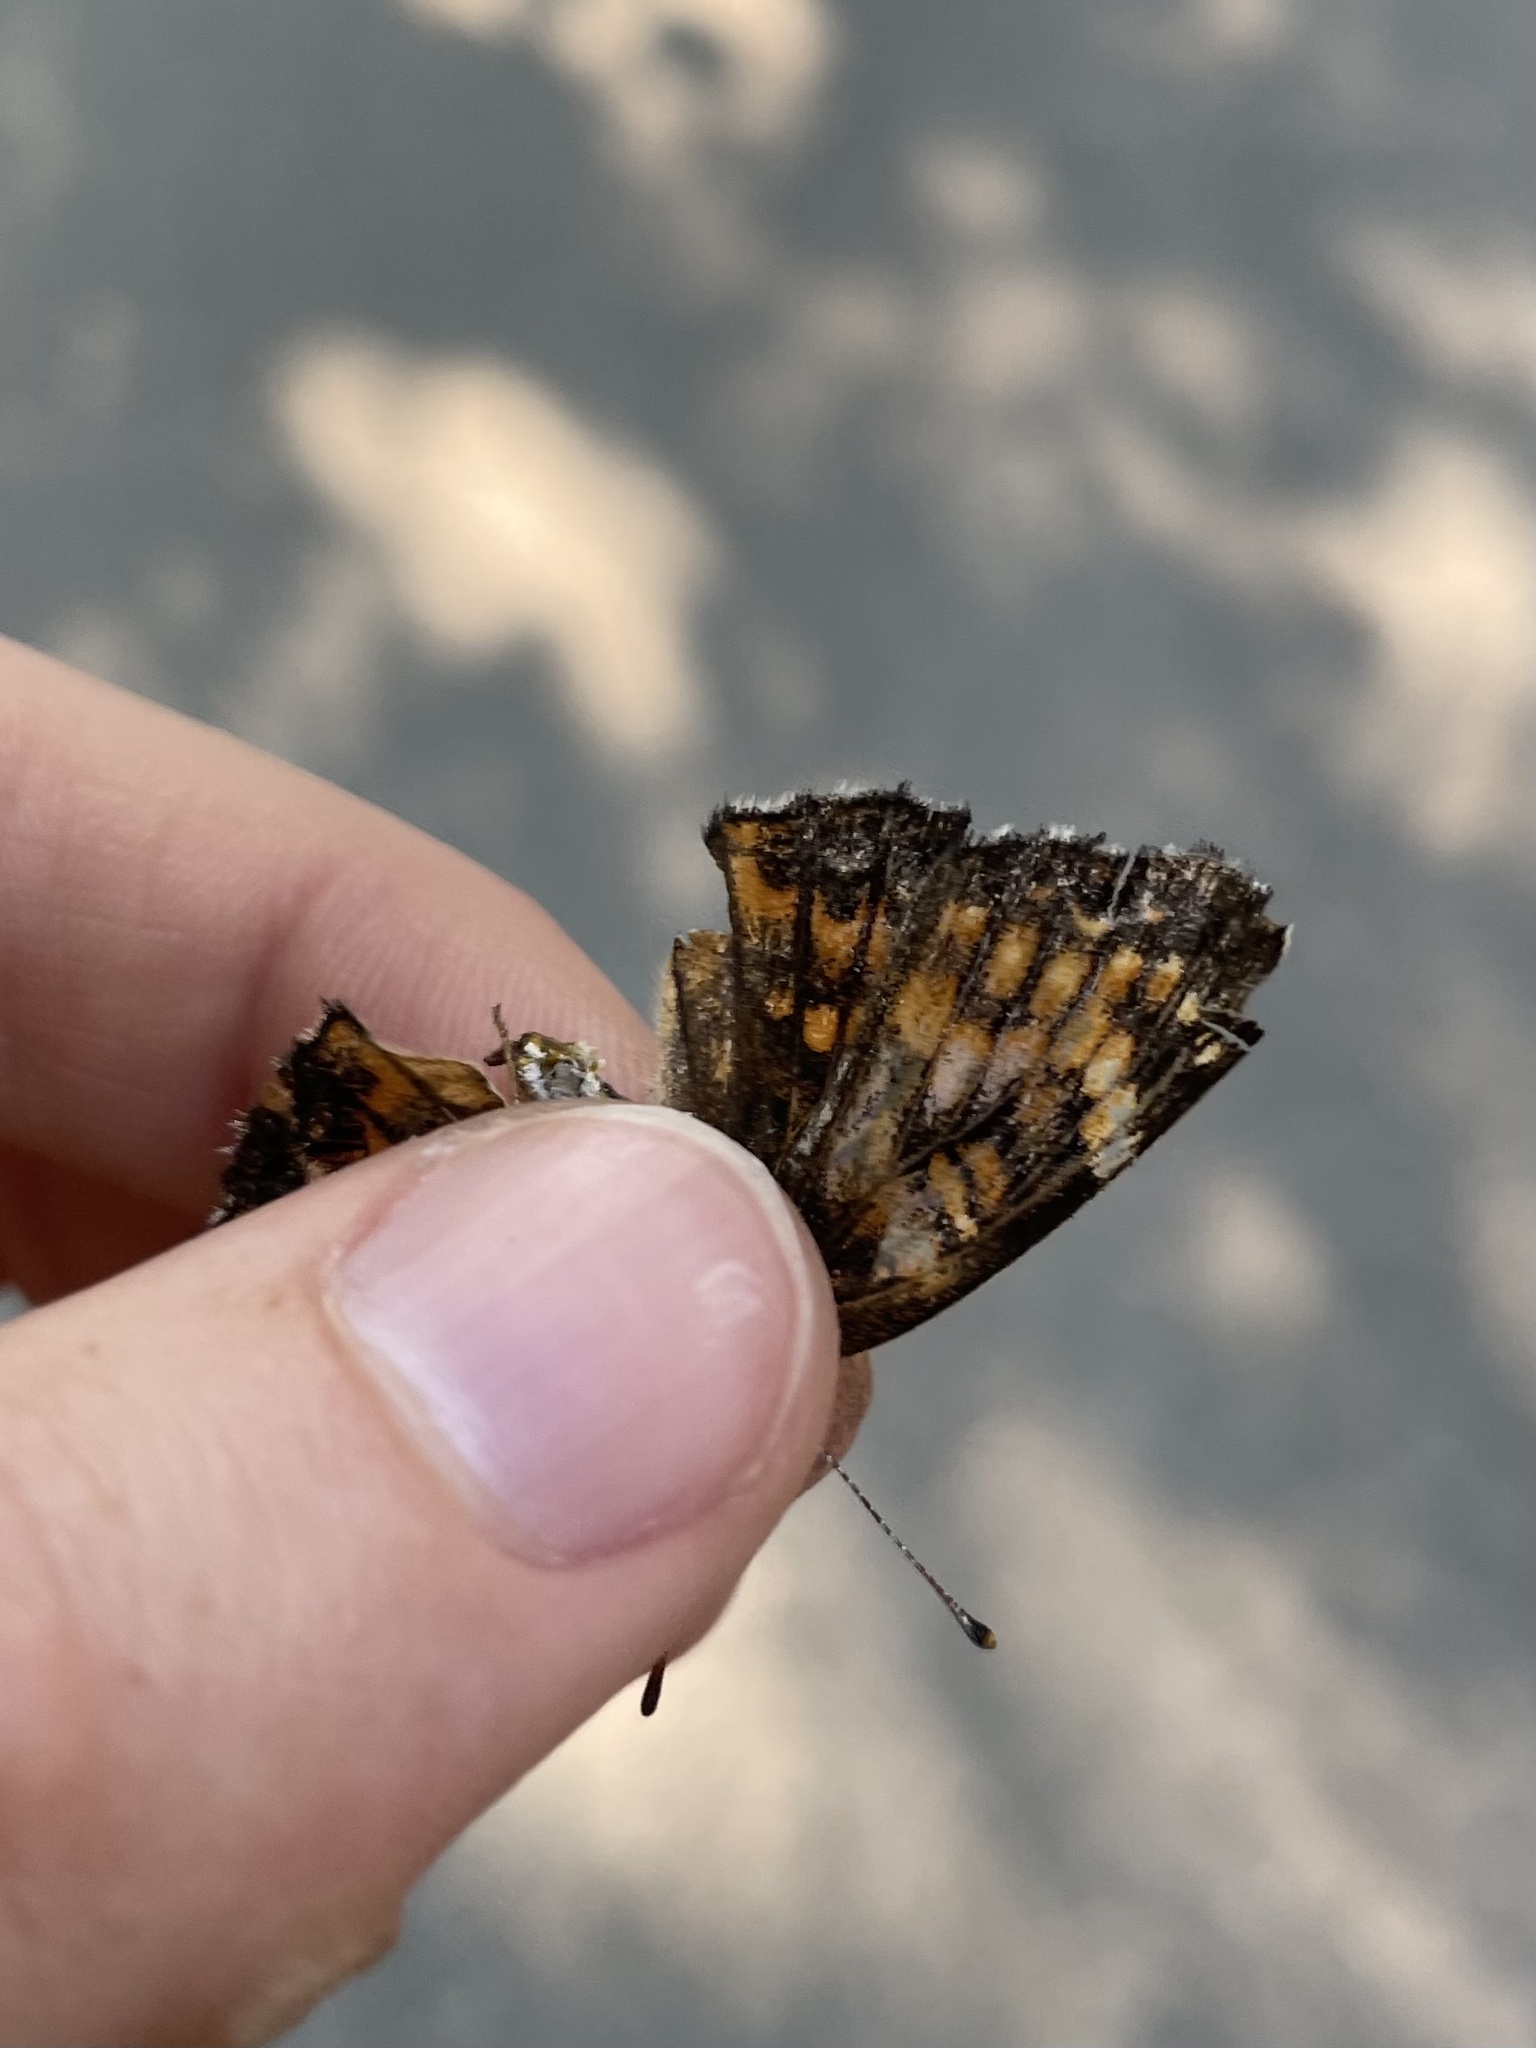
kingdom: Animalia
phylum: Arthropoda
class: Insecta
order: Lepidoptera
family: Nymphalidae
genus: Chlosyne
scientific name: Chlosyne harrisii
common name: Harris's checkerspot
